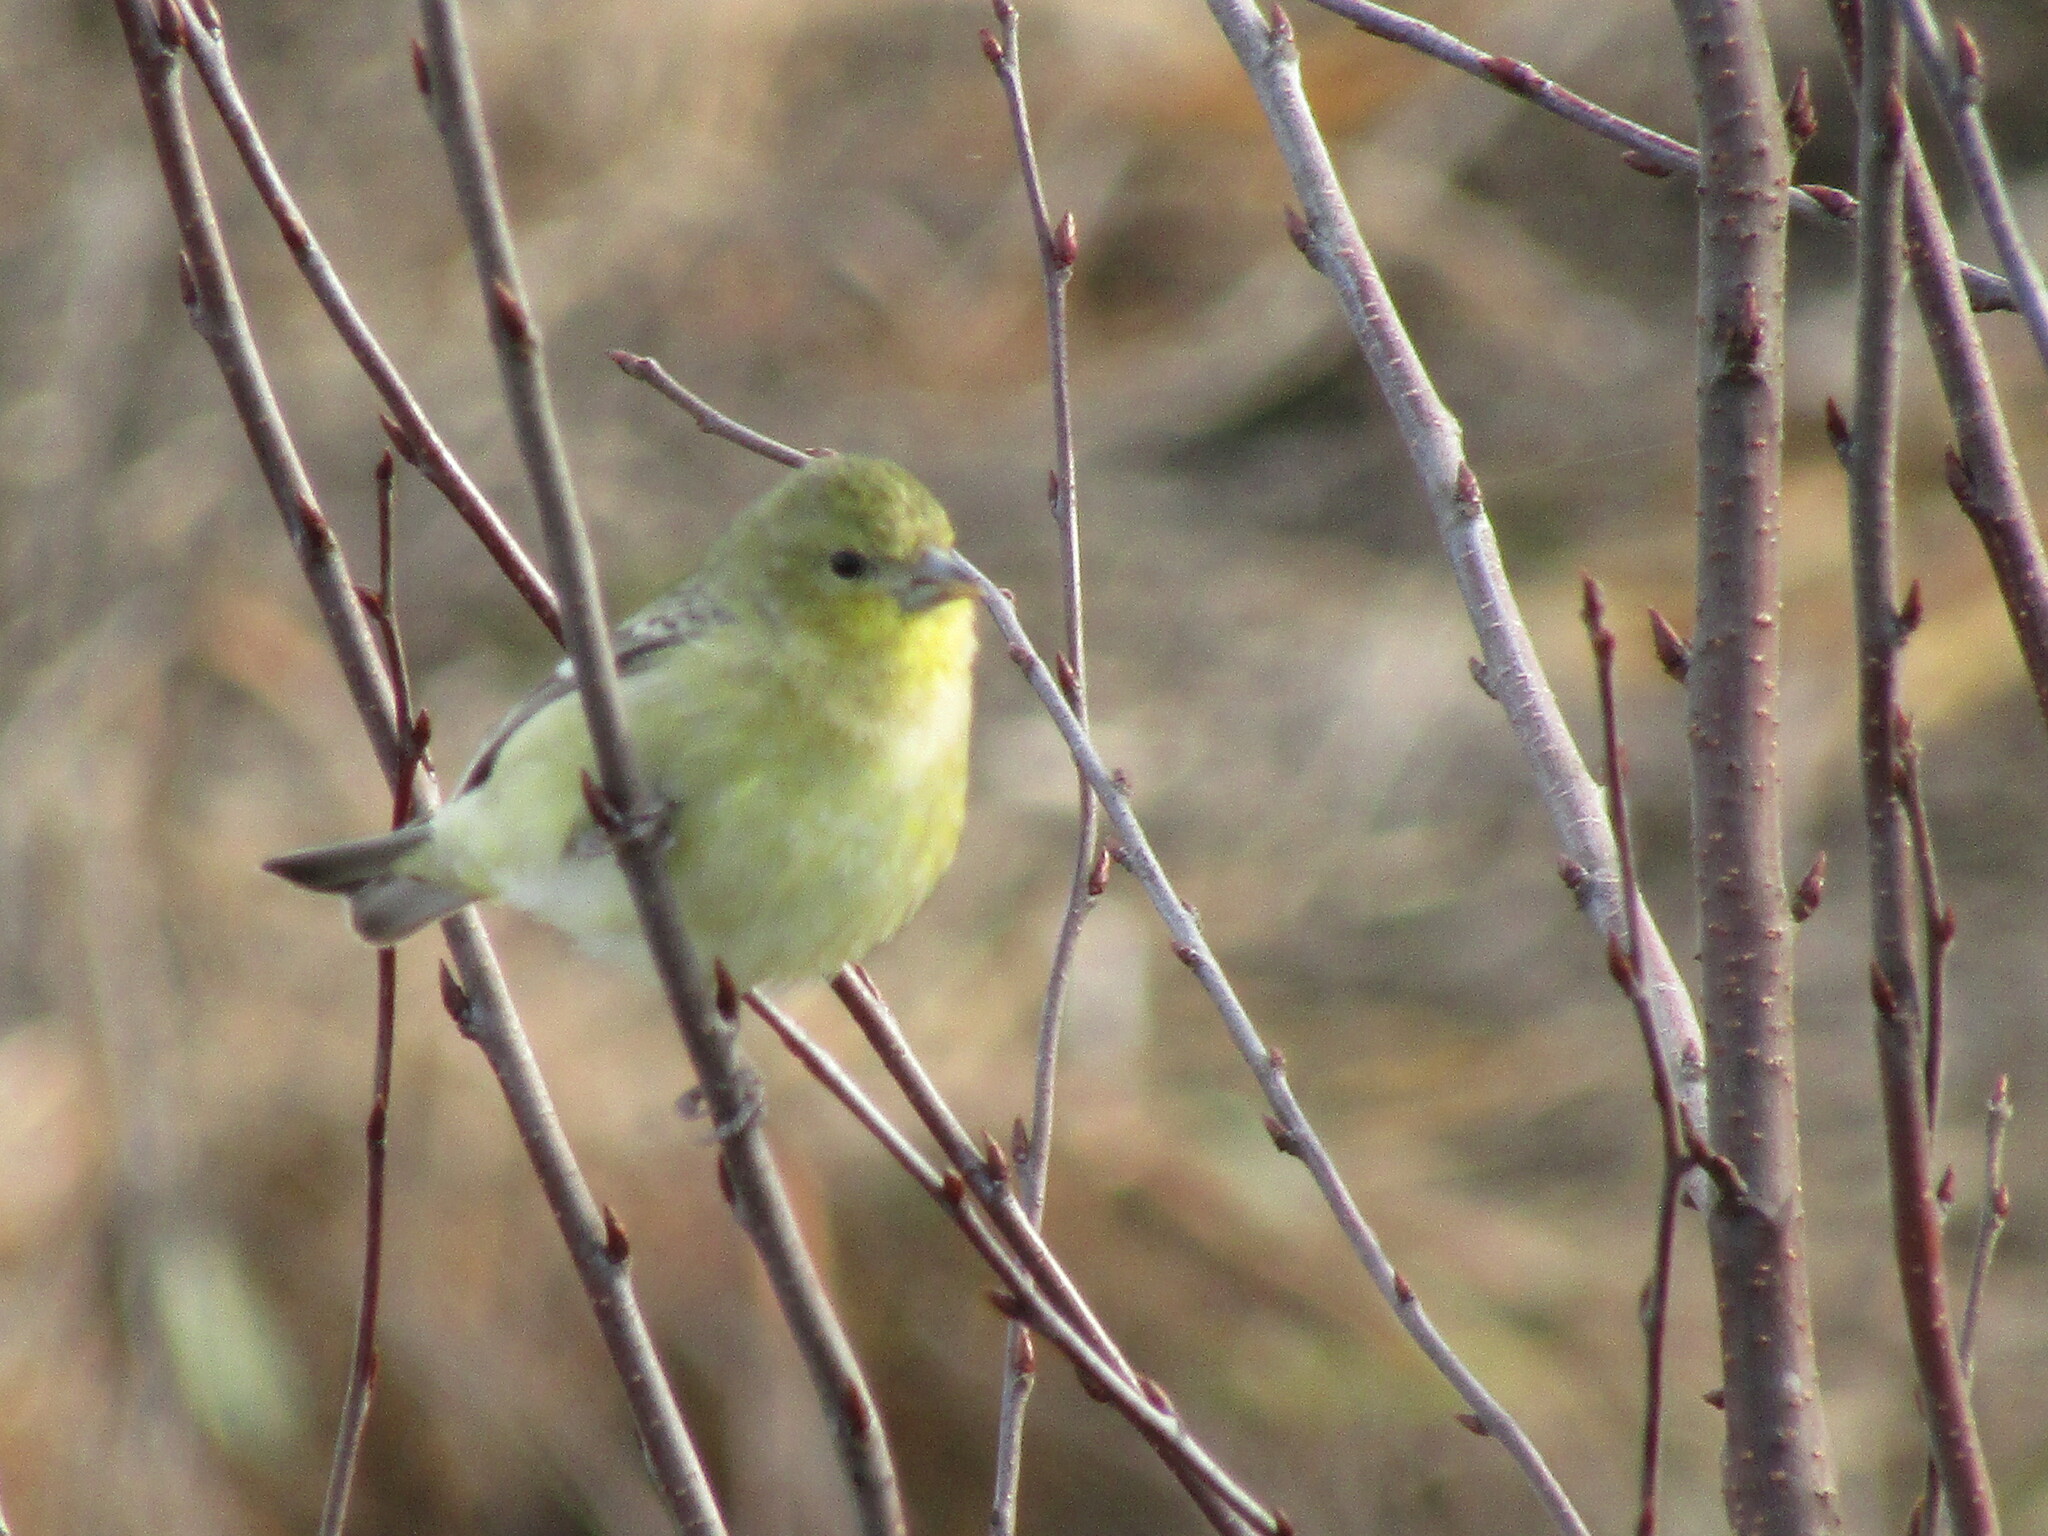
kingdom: Animalia
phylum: Chordata
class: Aves
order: Passeriformes
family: Fringillidae
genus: Spinus
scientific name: Spinus psaltria
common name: Lesser goldfinch
